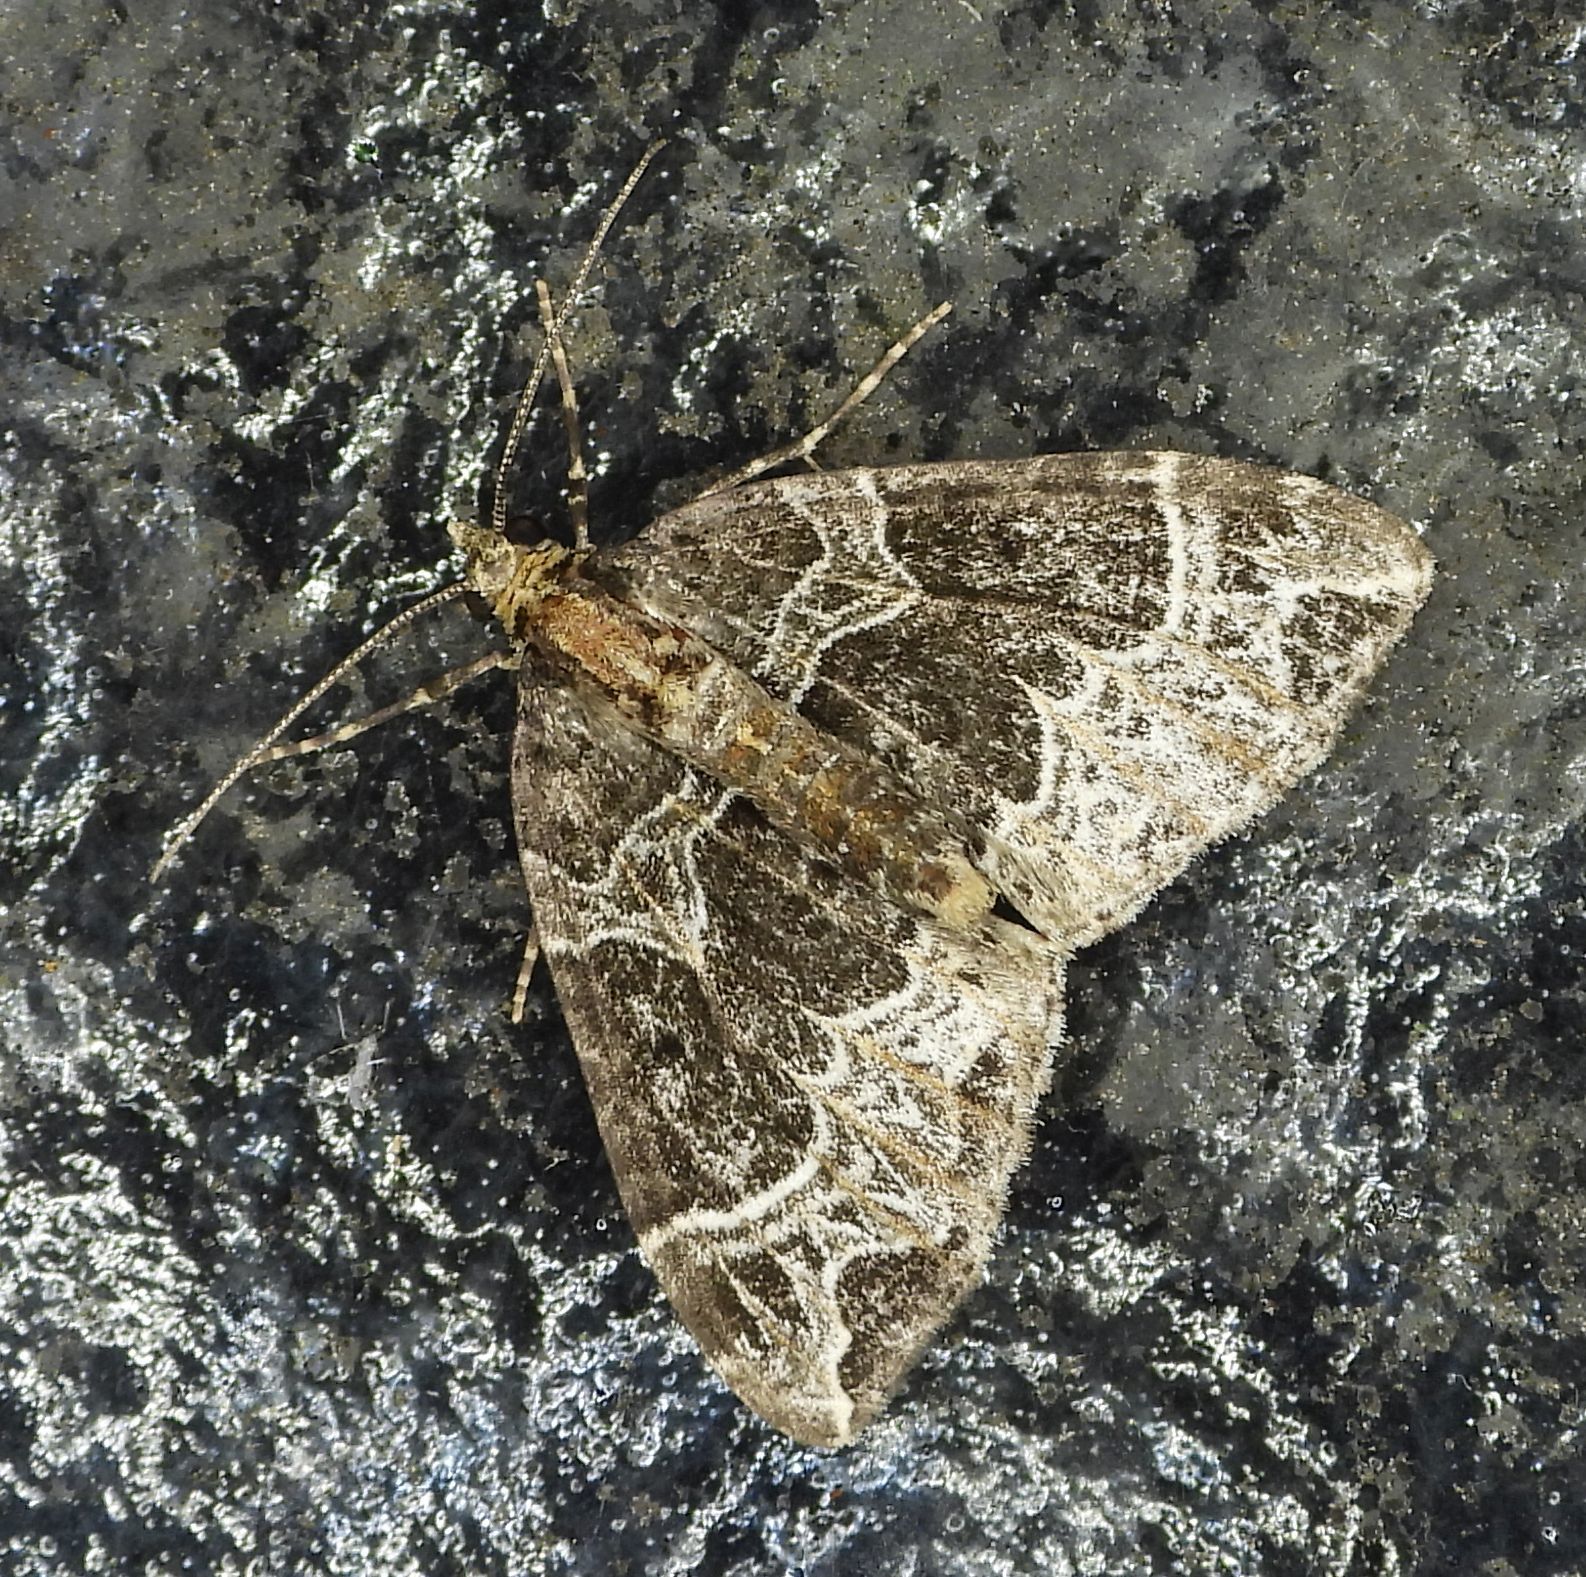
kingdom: Animalia
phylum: Arthropoda
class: Insecta
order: Lepidoptera
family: Geometridae
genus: Ecliptopera
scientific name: Ecliptopera silaceata
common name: Small phoenix
